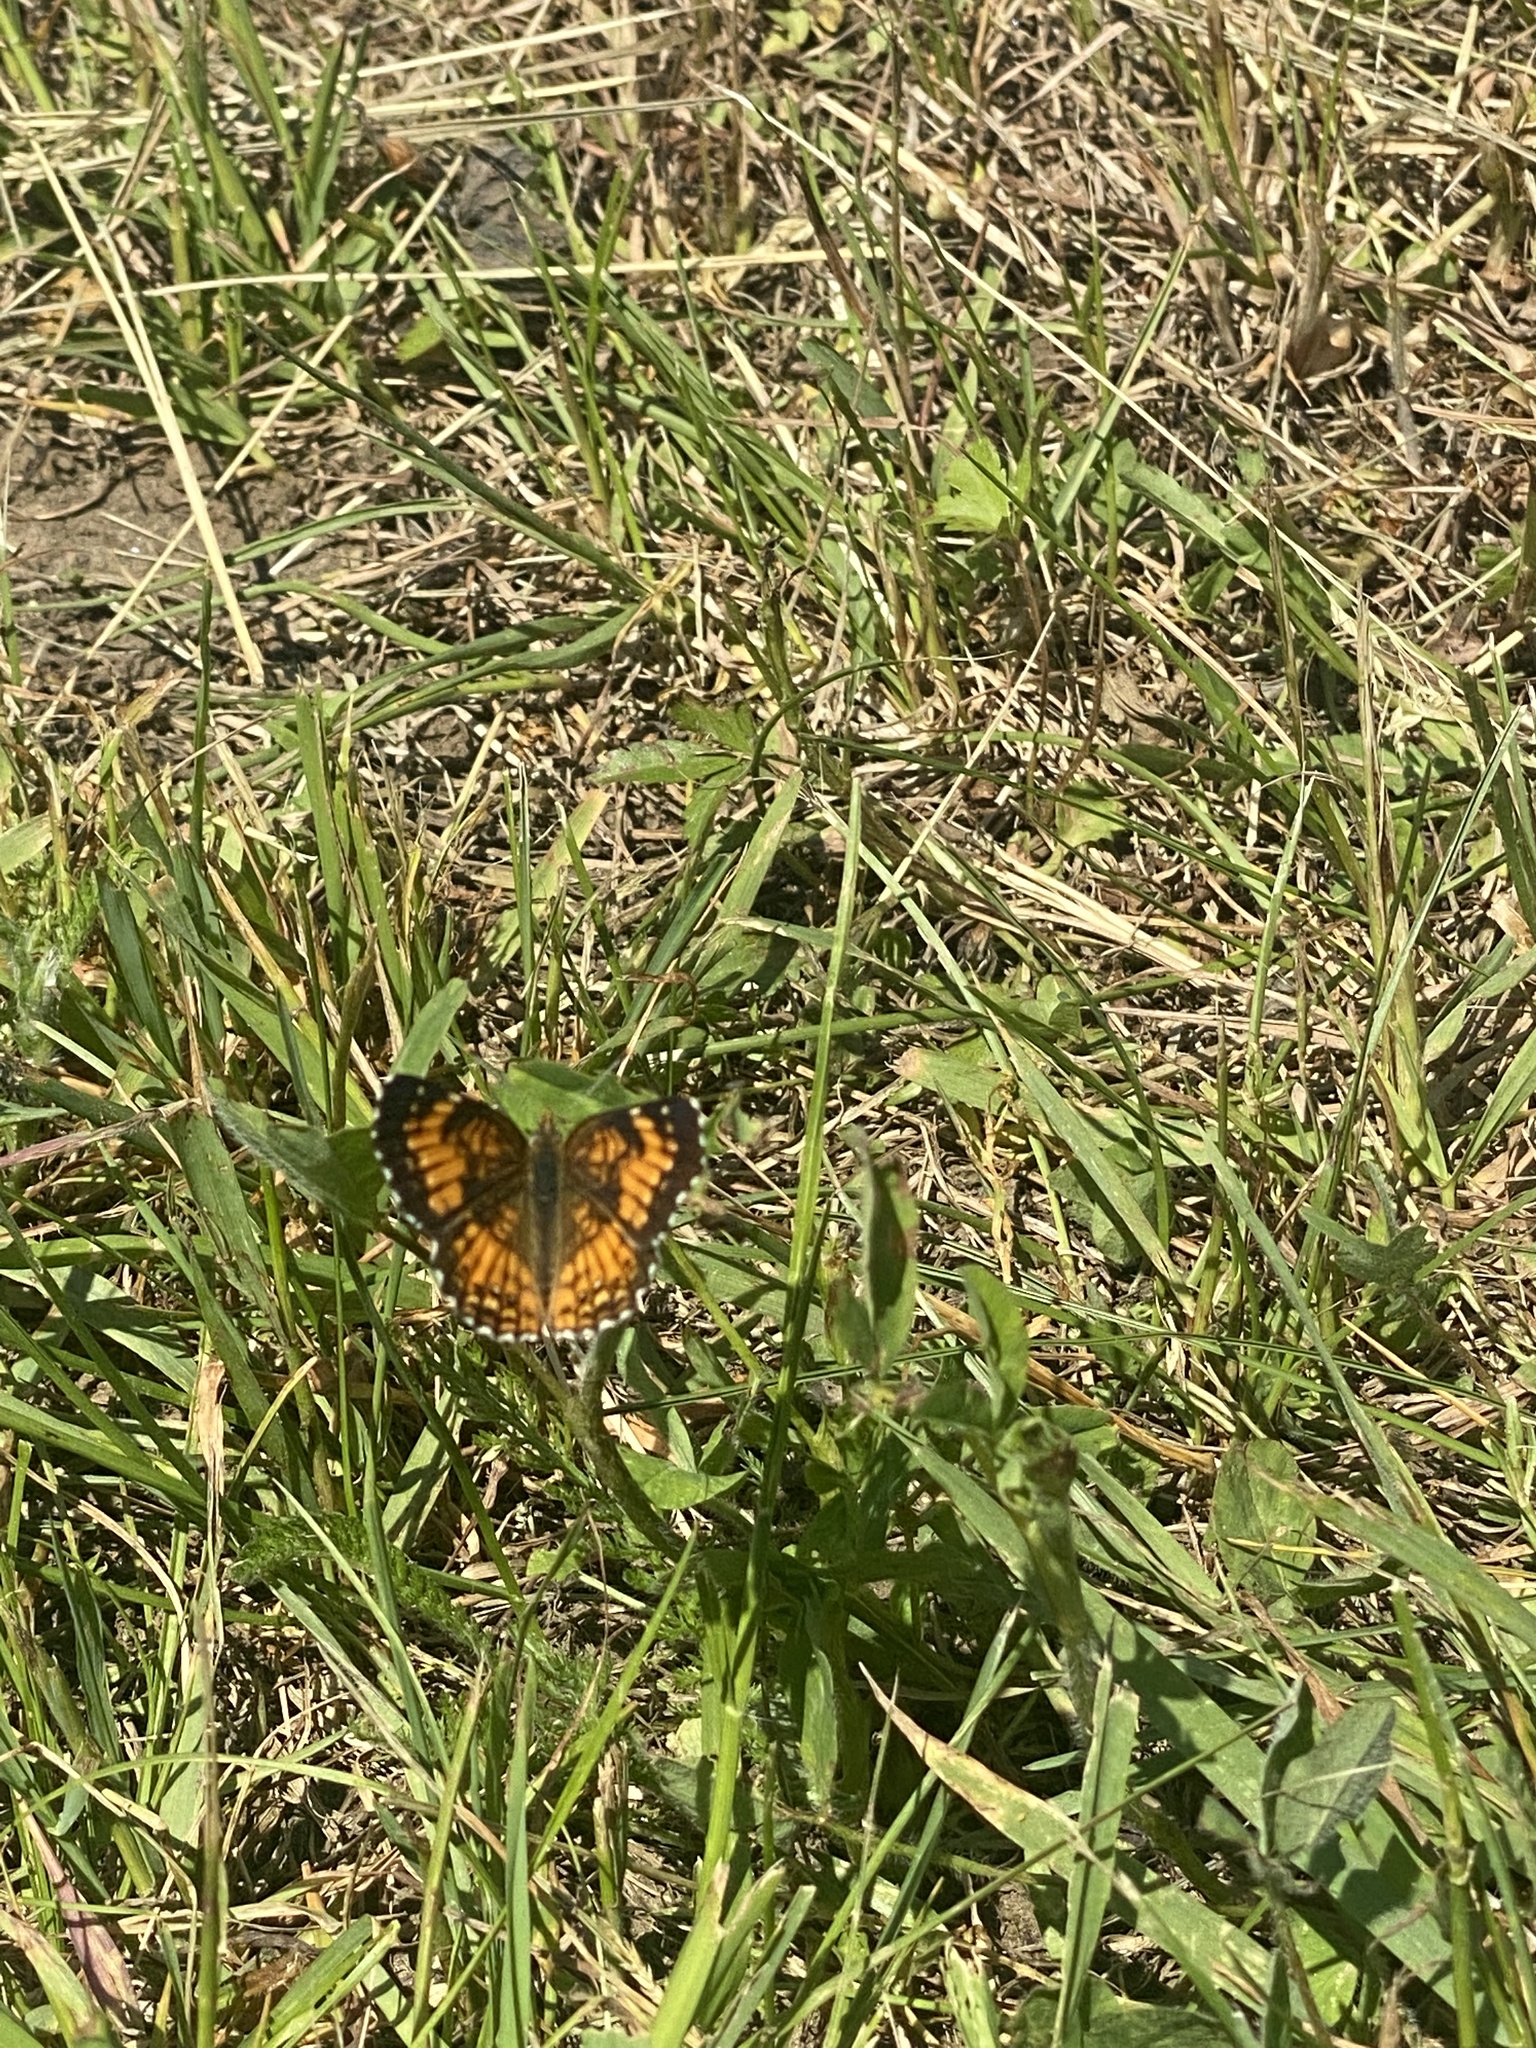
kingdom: Animalia
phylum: Arthropoda
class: Insecta
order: Lepidoptera
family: Nymphalidae
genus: Chlosyne
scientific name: Chlosyne harrisii
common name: Harris's checkerspot
